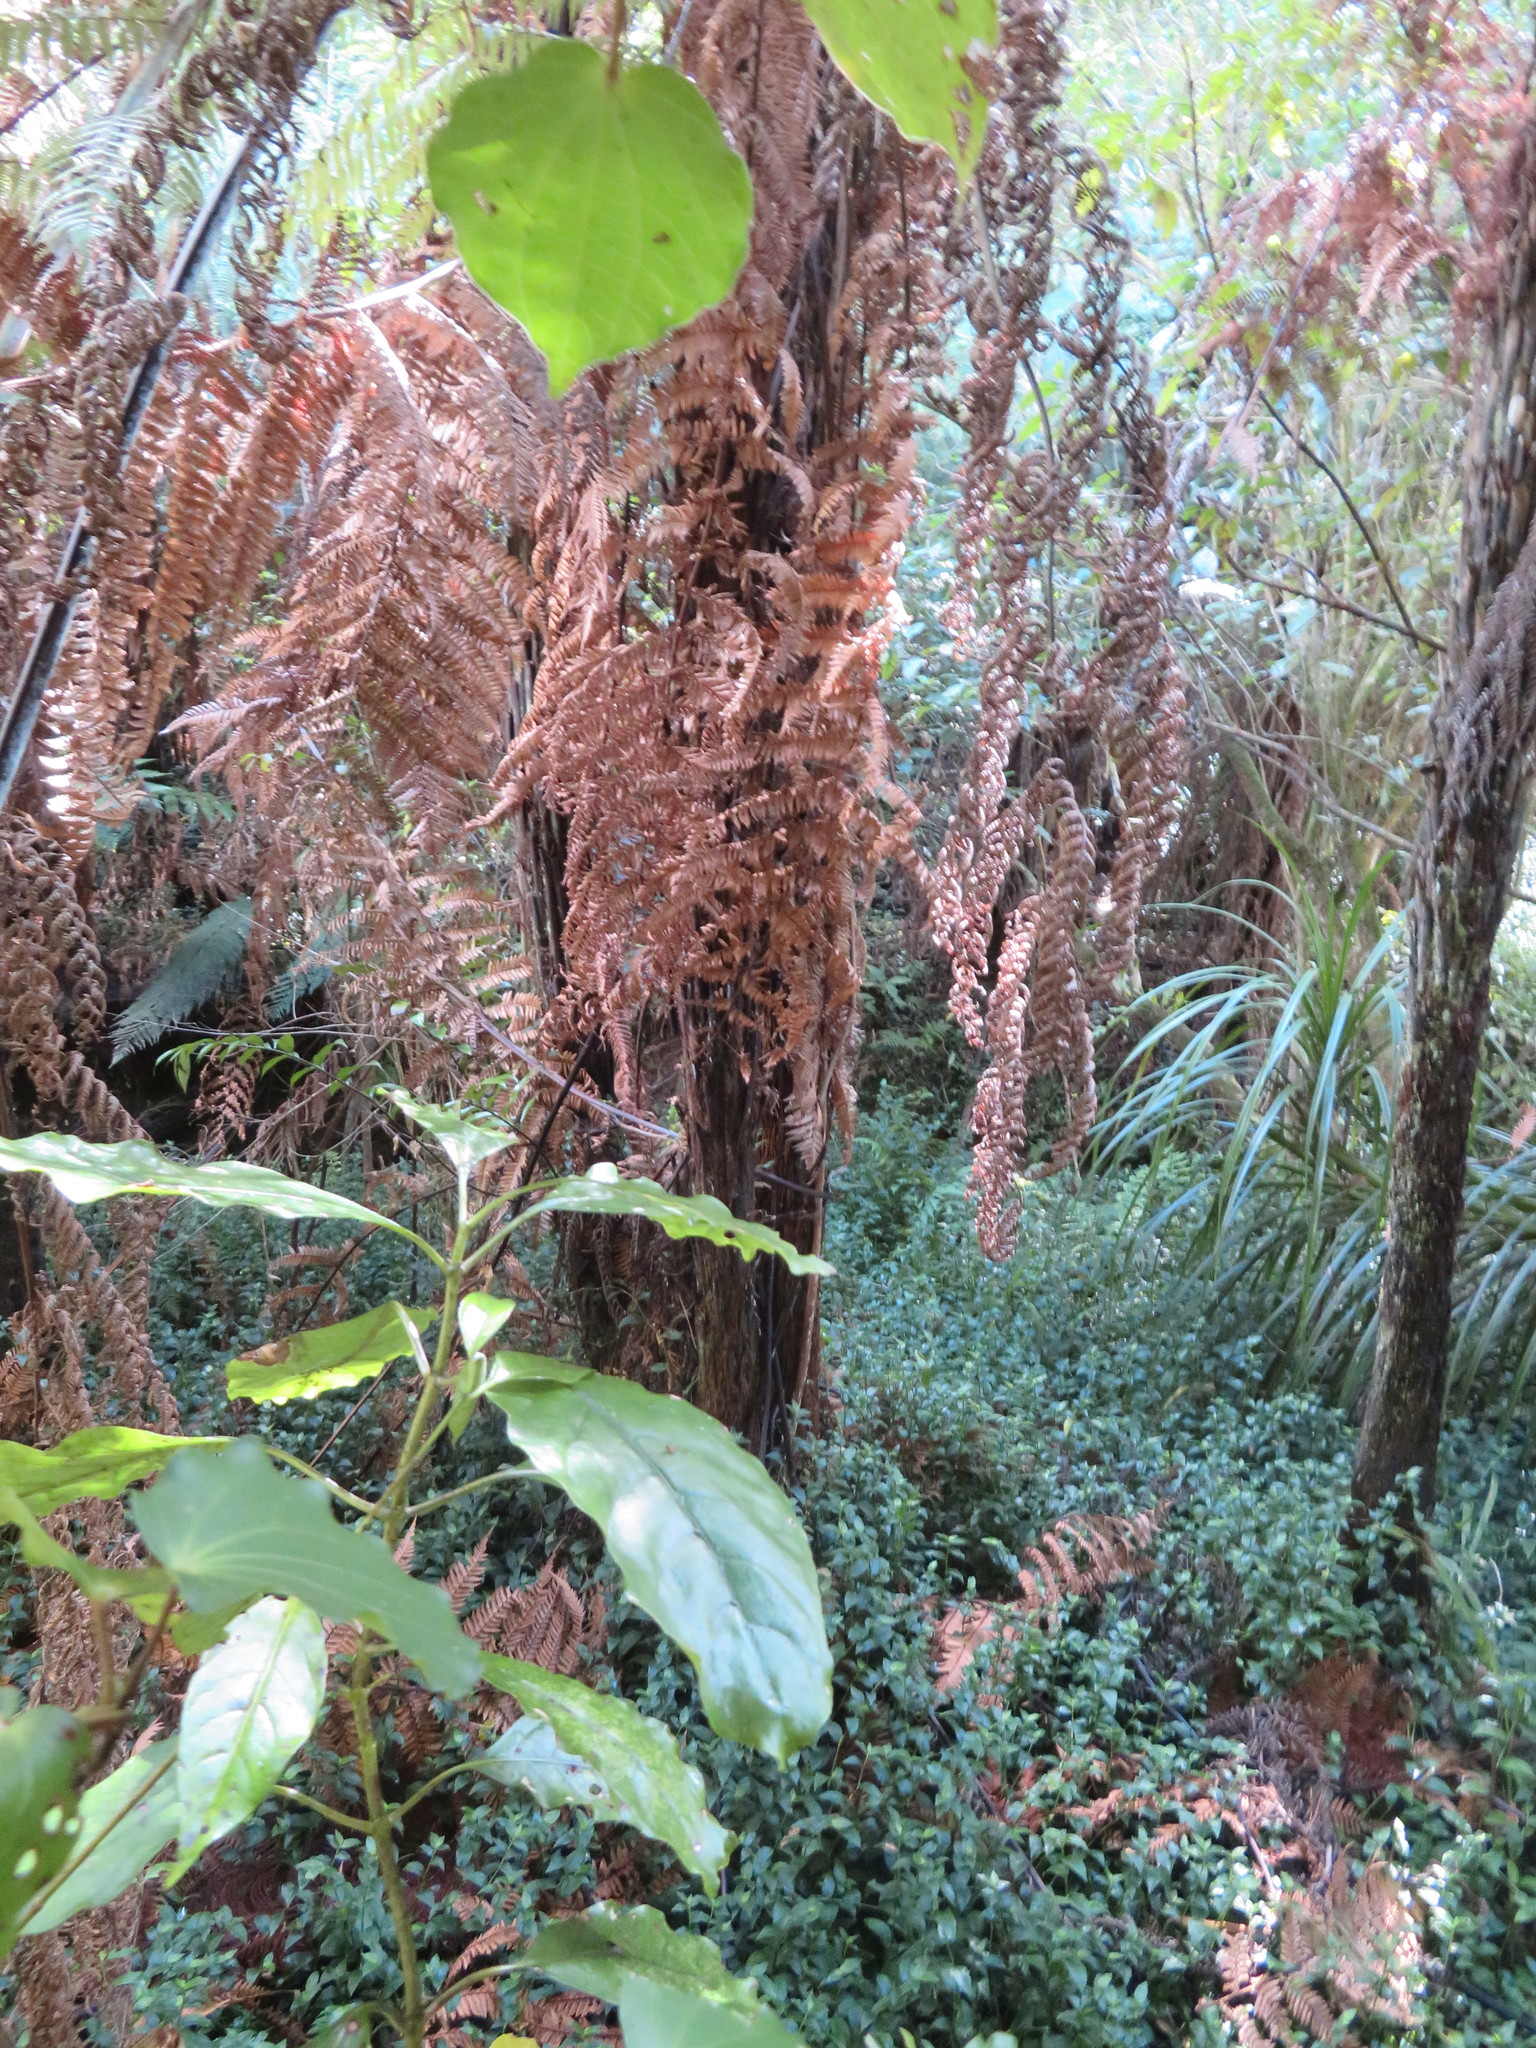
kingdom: Plantae
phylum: Tracheophyta
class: Magnoliopsida
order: Gentianales
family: Rubiaceae
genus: Coprosma
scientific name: Coprosma autumnalis
